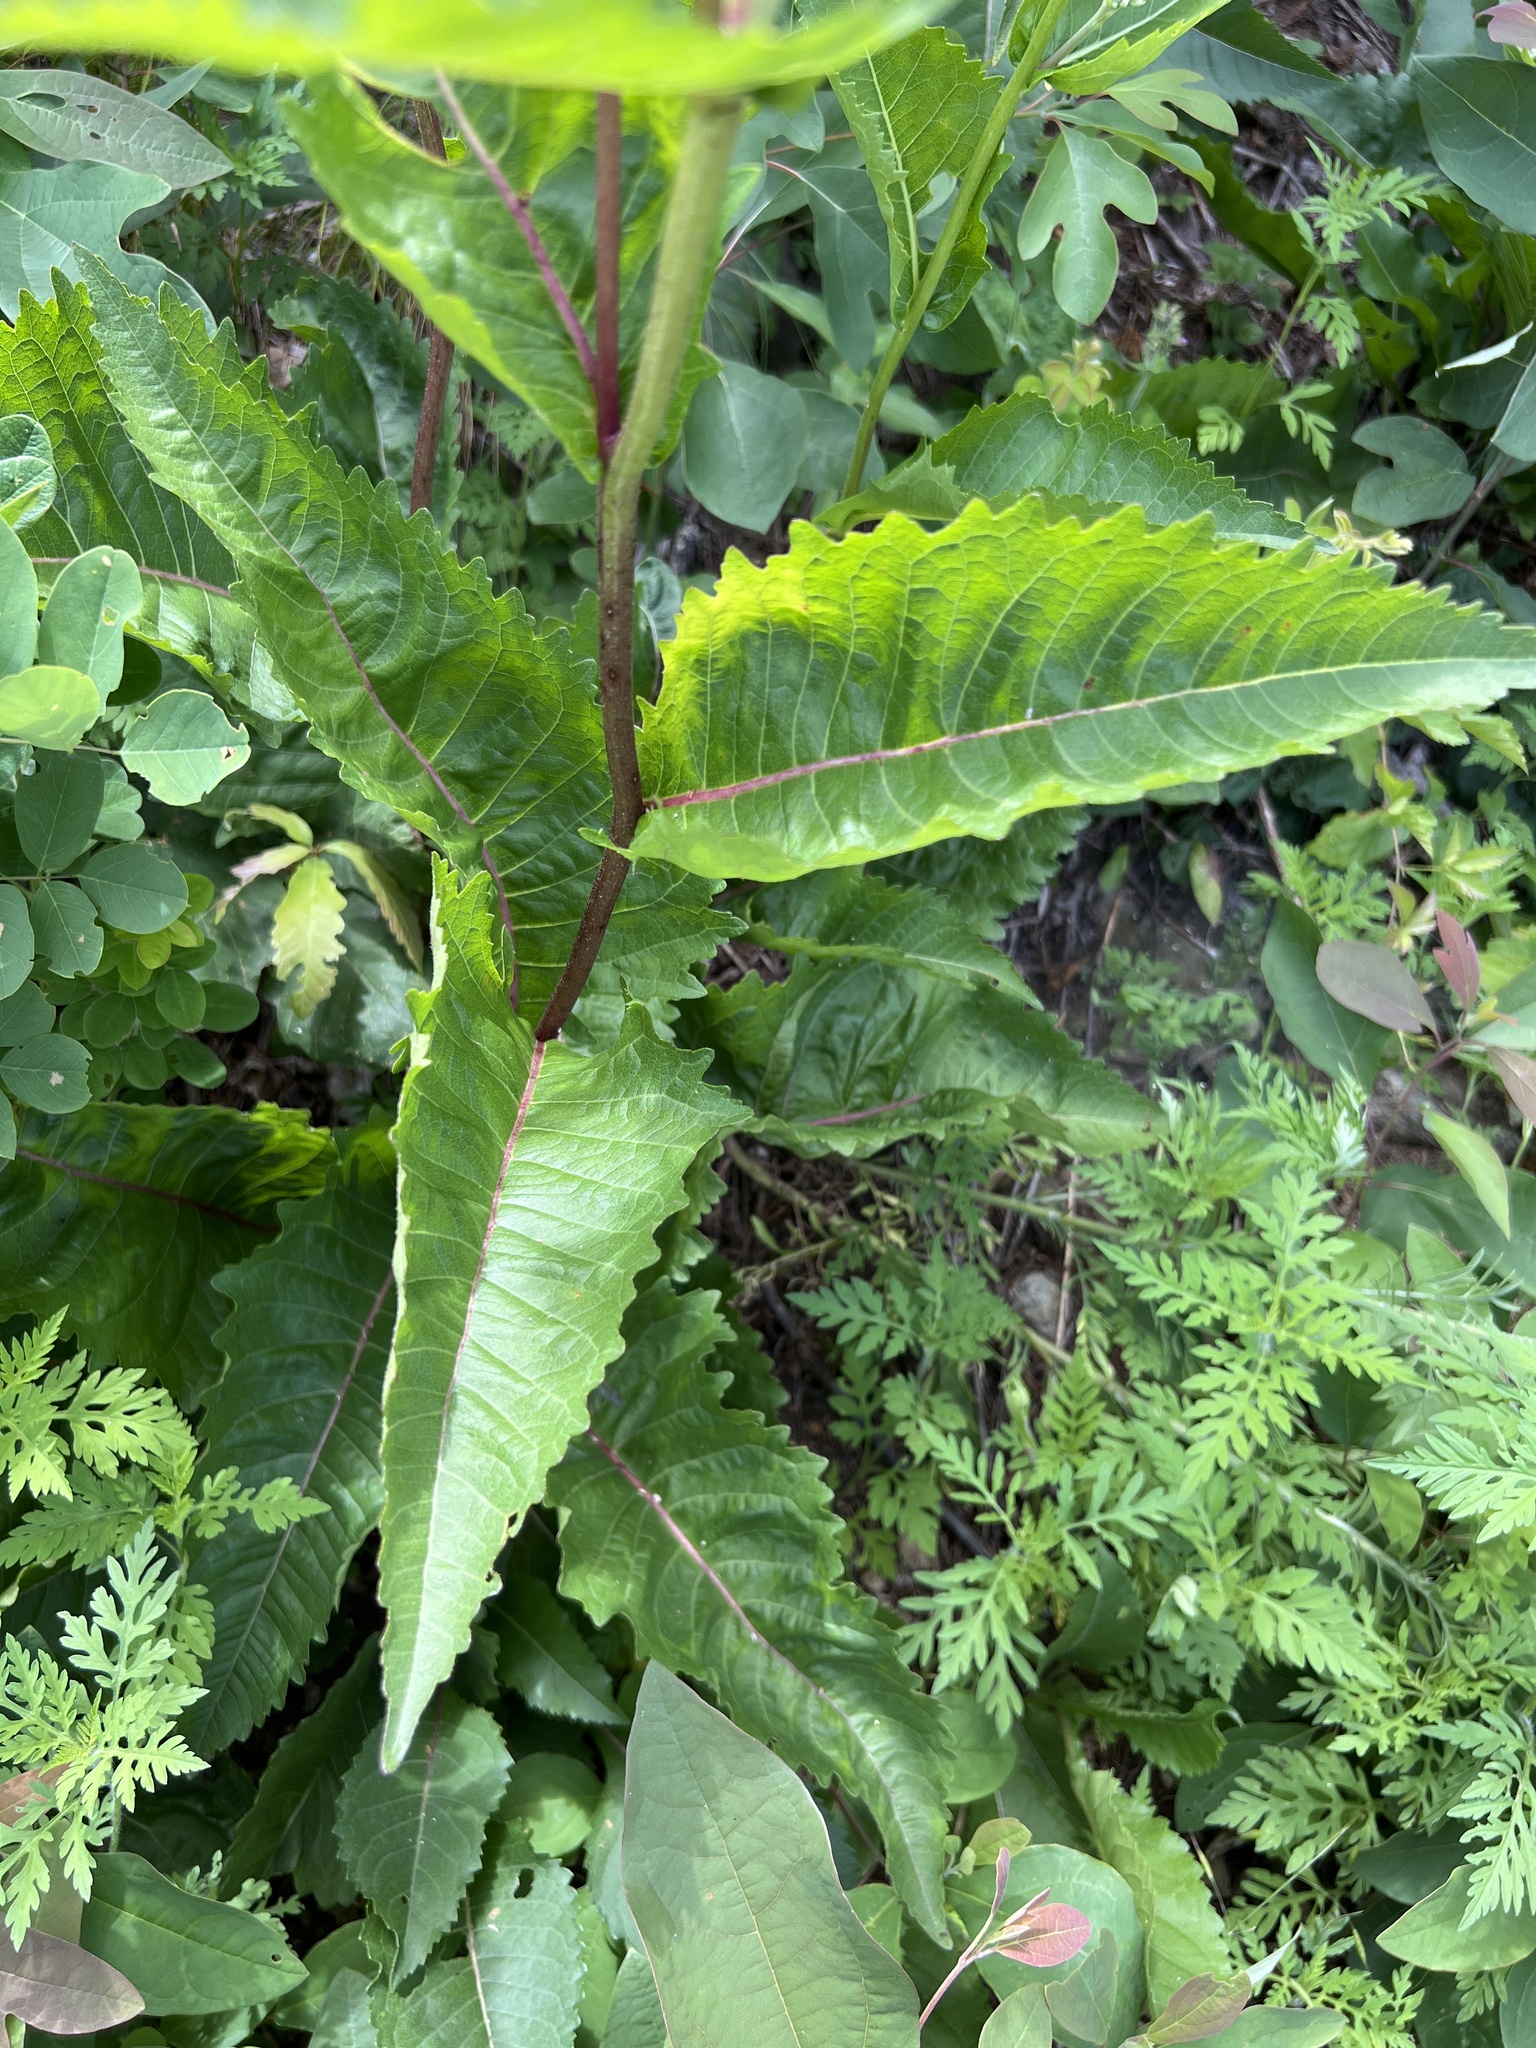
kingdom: Plantae
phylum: Tracheophyta
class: Magnoliopsida
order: Asterales
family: Asteraceae
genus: Parthenium
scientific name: Parthenium integrifolium
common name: American feverfew
